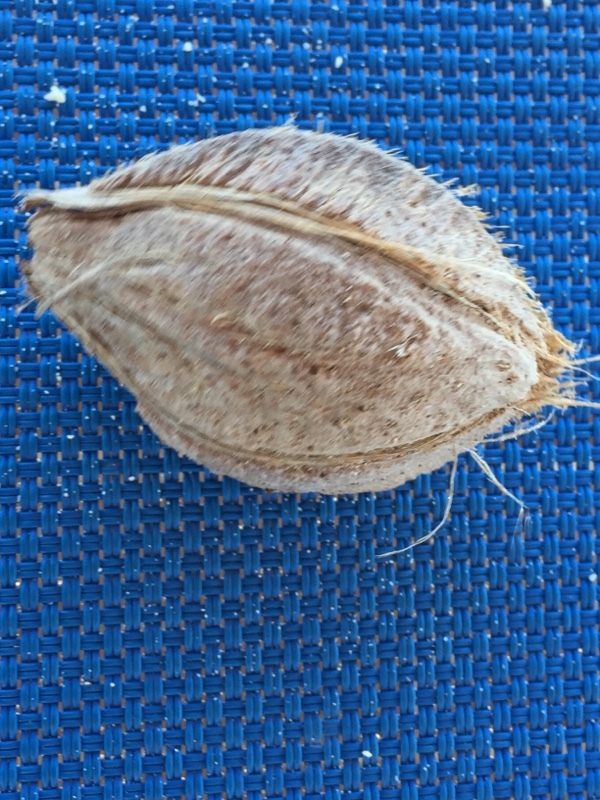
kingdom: Plantae
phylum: Tracheophyta
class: Magnoliopsida
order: Myrtales
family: Combretaceae
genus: Terminalia
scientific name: Terminalia catappa
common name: Tropical almond
